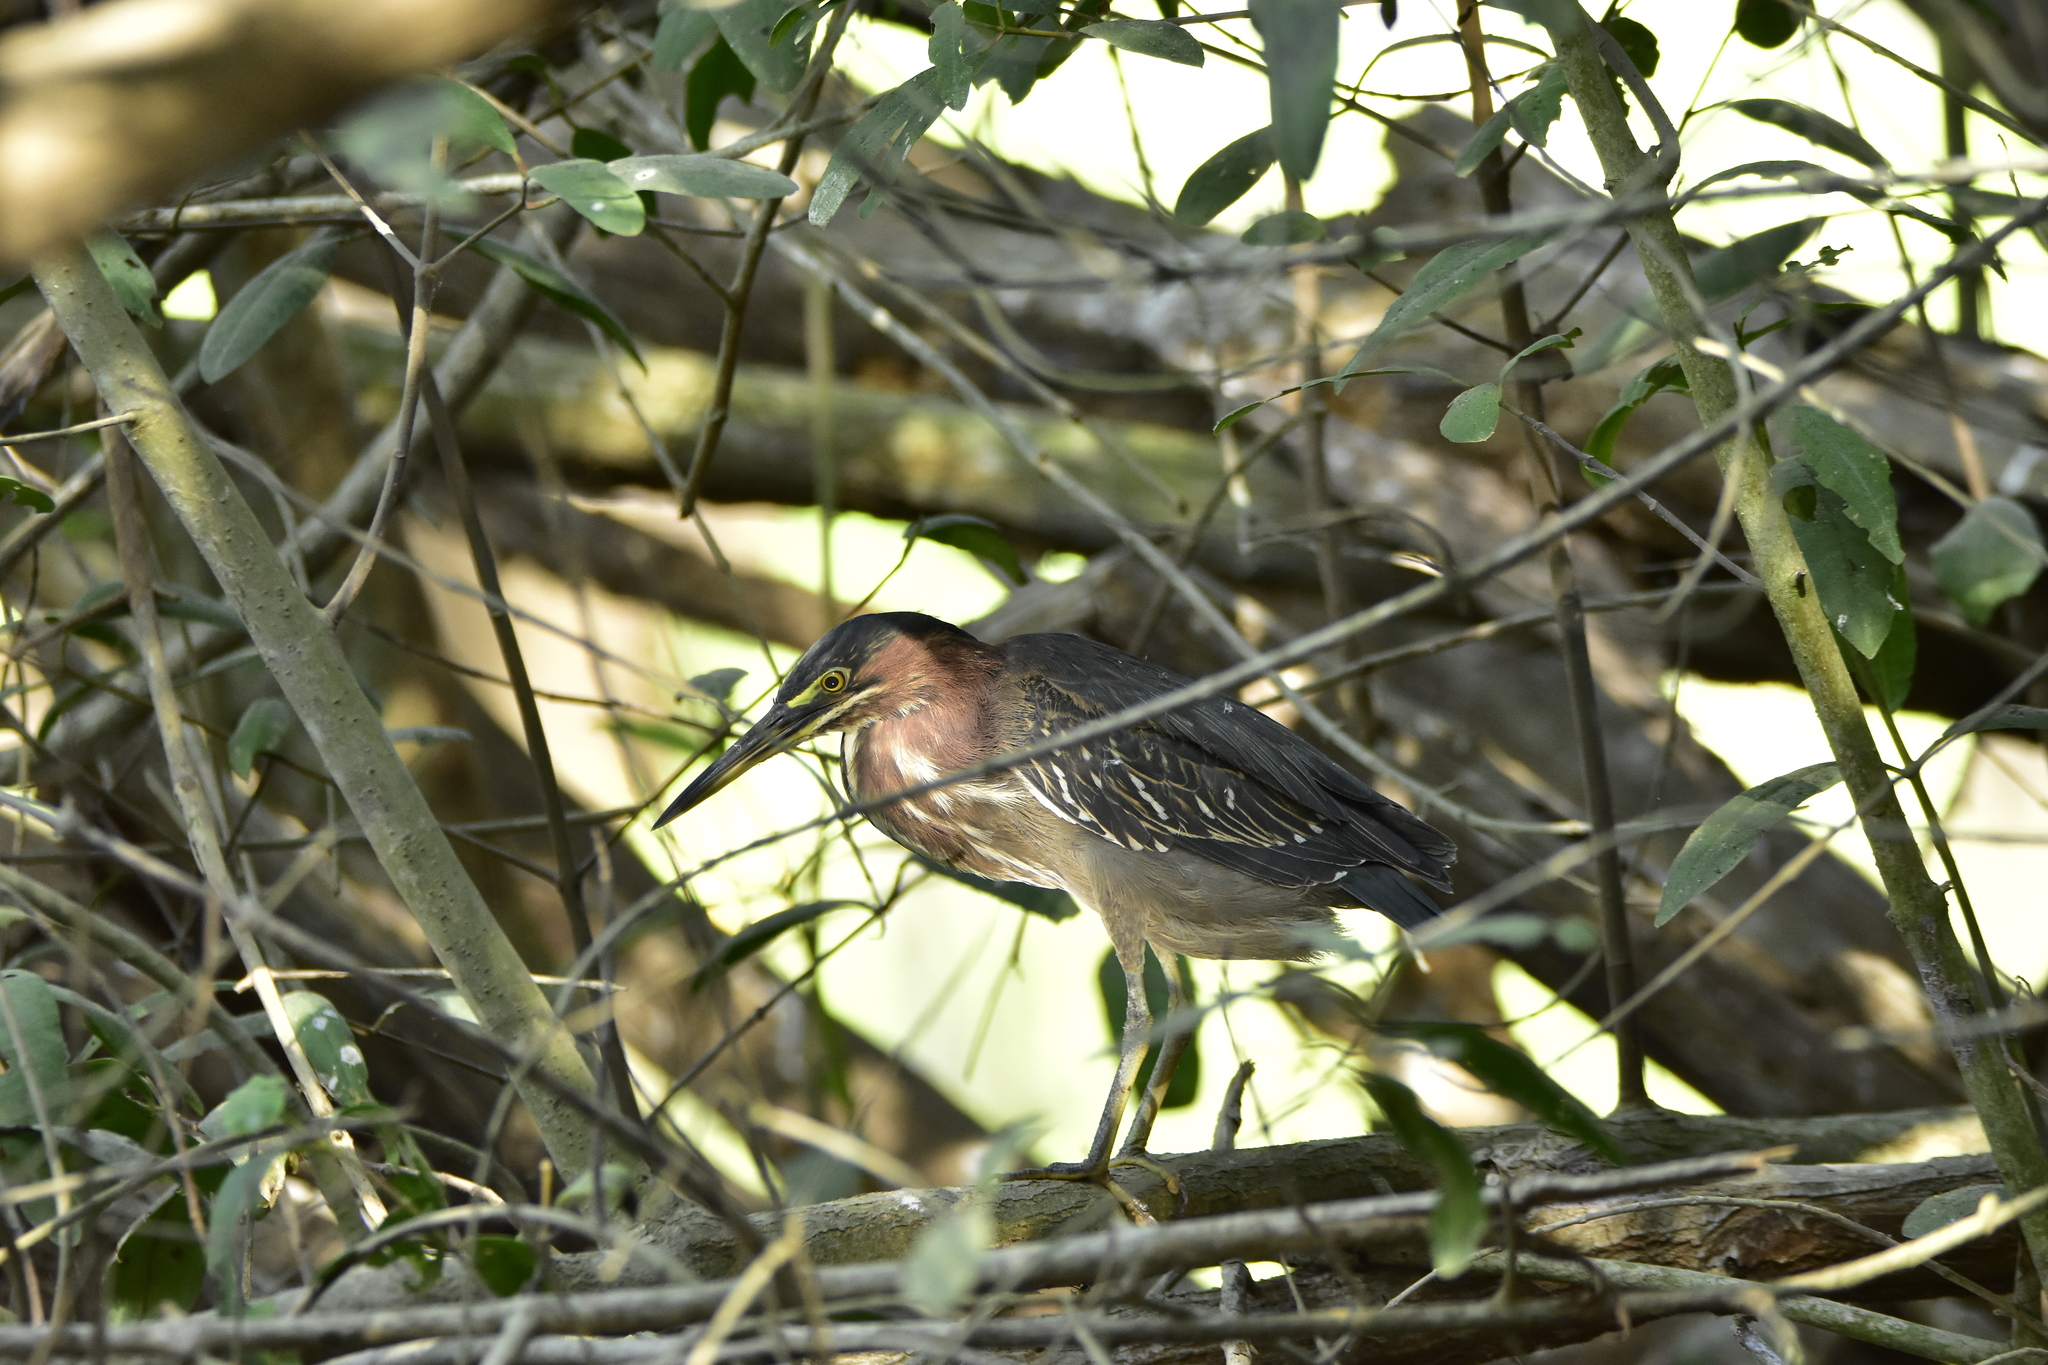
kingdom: Animalia
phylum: Chordata
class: Aves
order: Pelecaniformes
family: Ardeidae
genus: Butorides
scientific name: Butorides virescens
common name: Green heron
